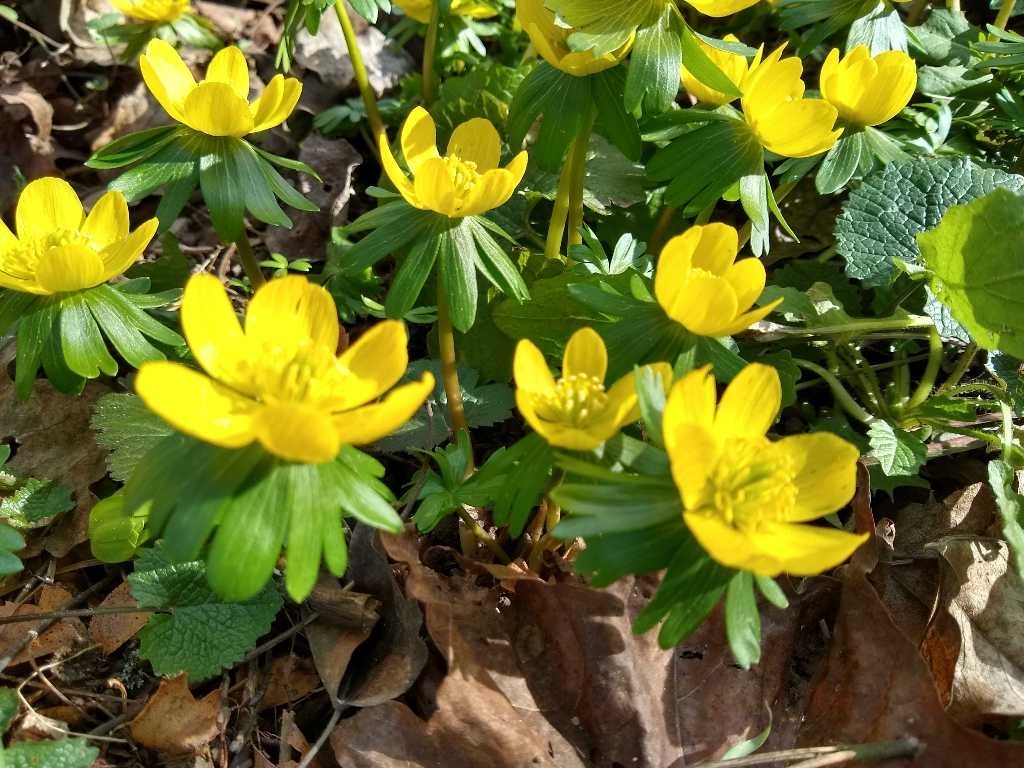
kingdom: Plantae
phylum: Tracheophyta
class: Magnoliopsida
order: Ranunculales
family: Ranunculaceae
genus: Eranthis
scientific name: Eranthis hyemalis
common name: Winter aconite
